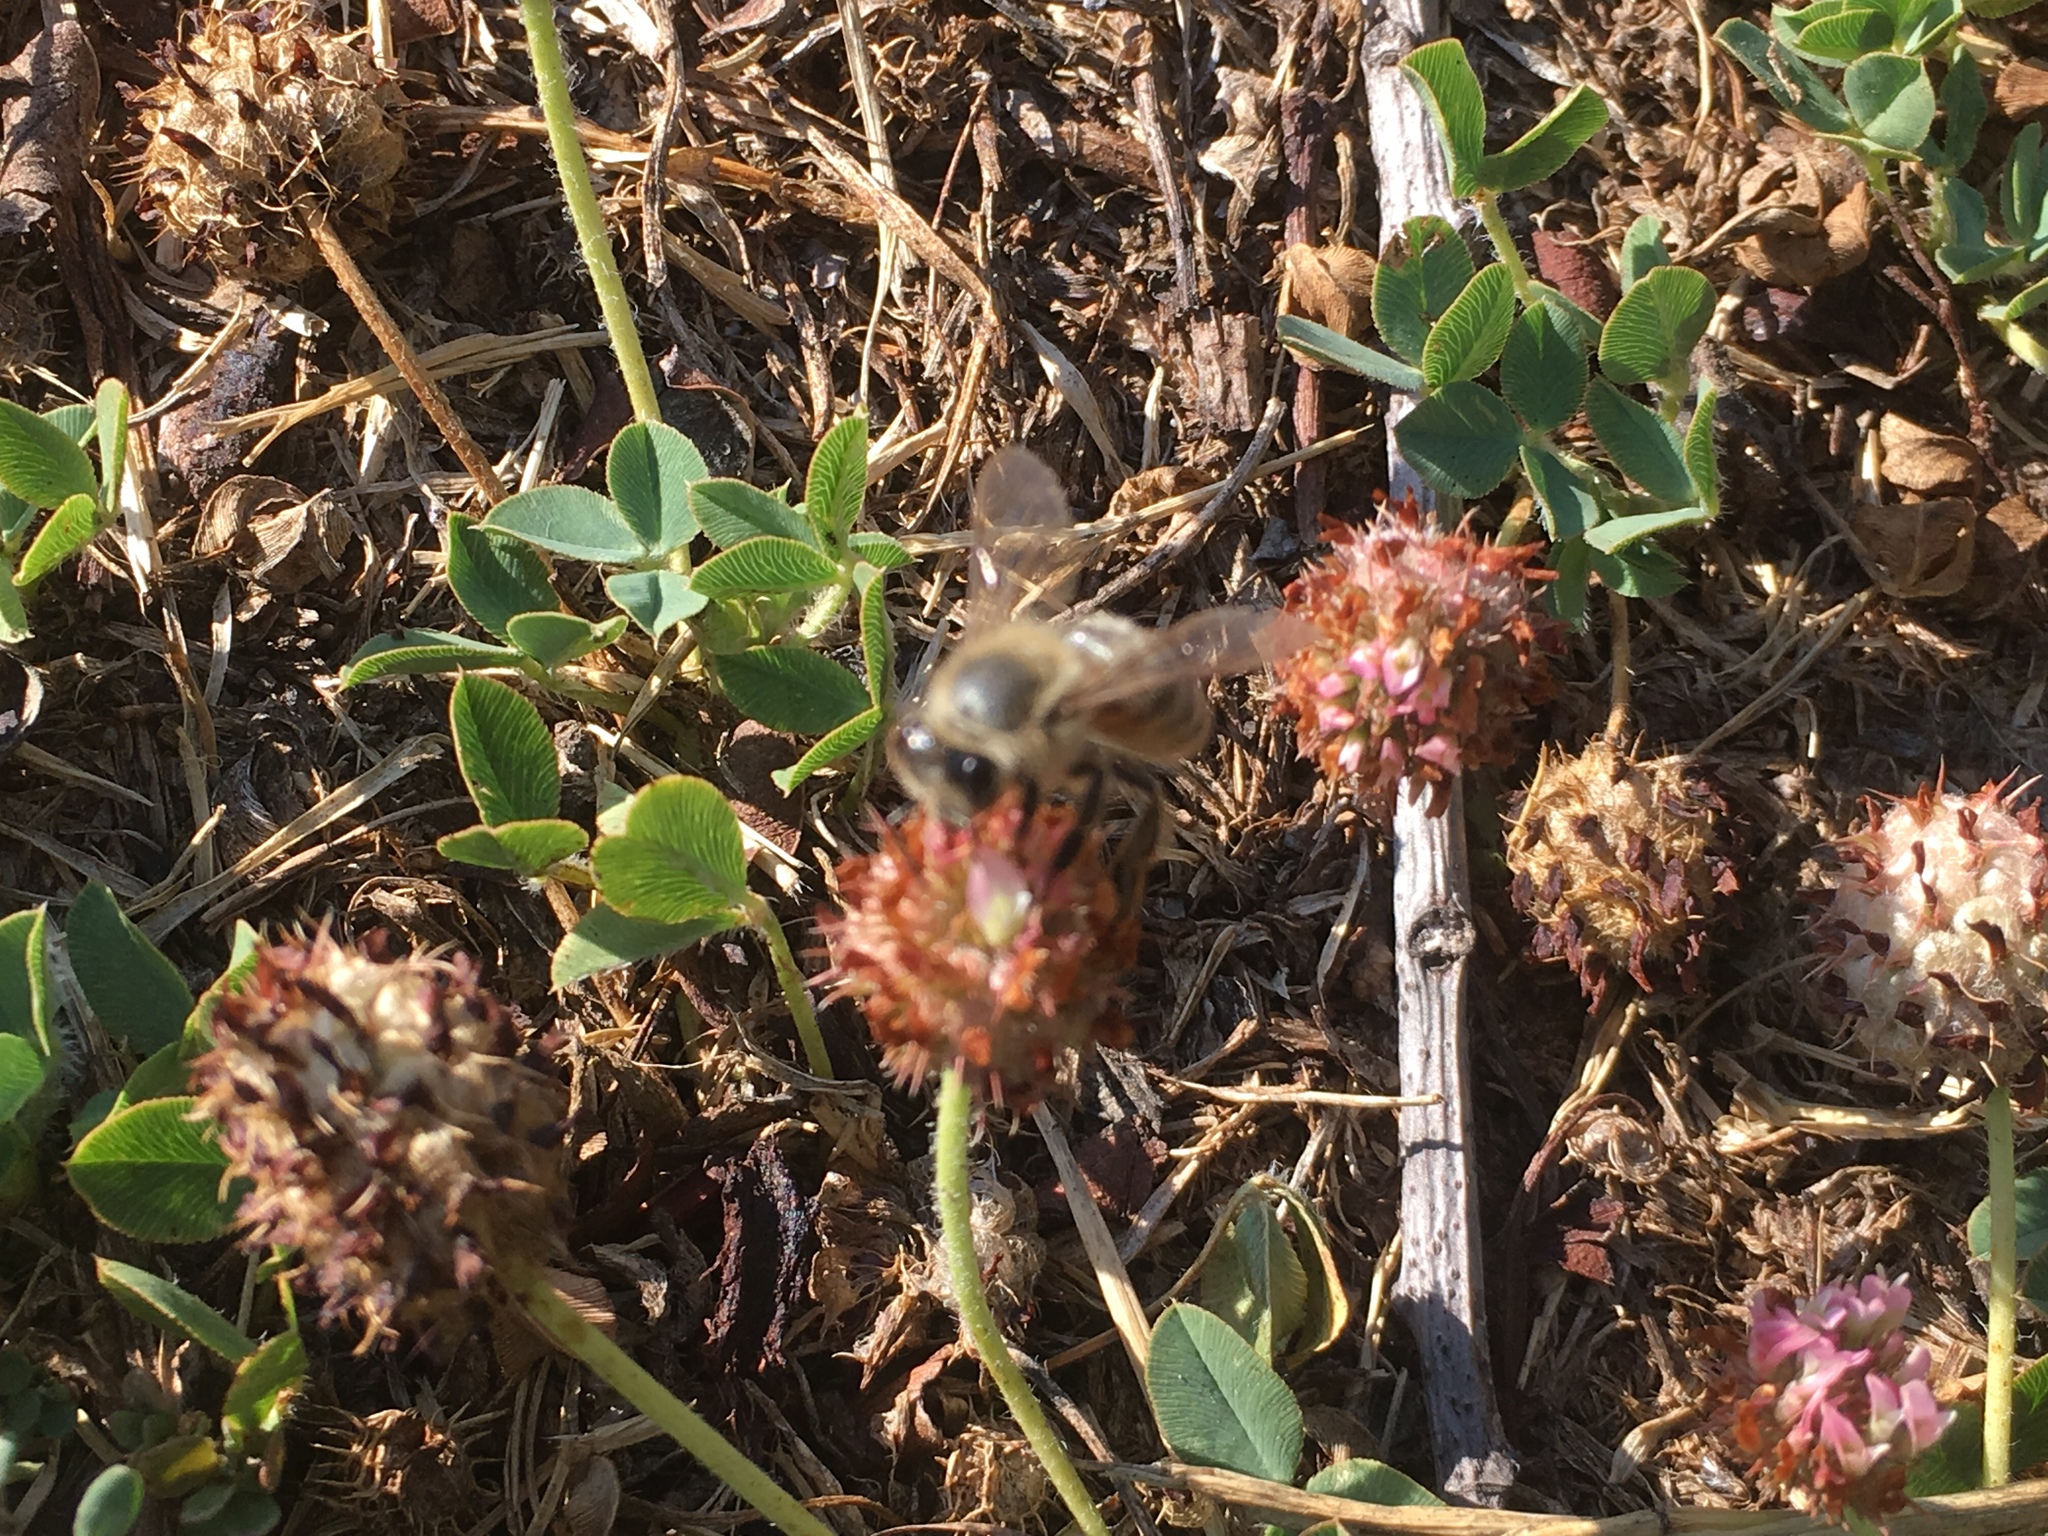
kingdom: Animalia
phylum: Arthropoda
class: Insecta
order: Hymenoptera
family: Apidae
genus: Apis
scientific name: Apis mellifera
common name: Honey bee
